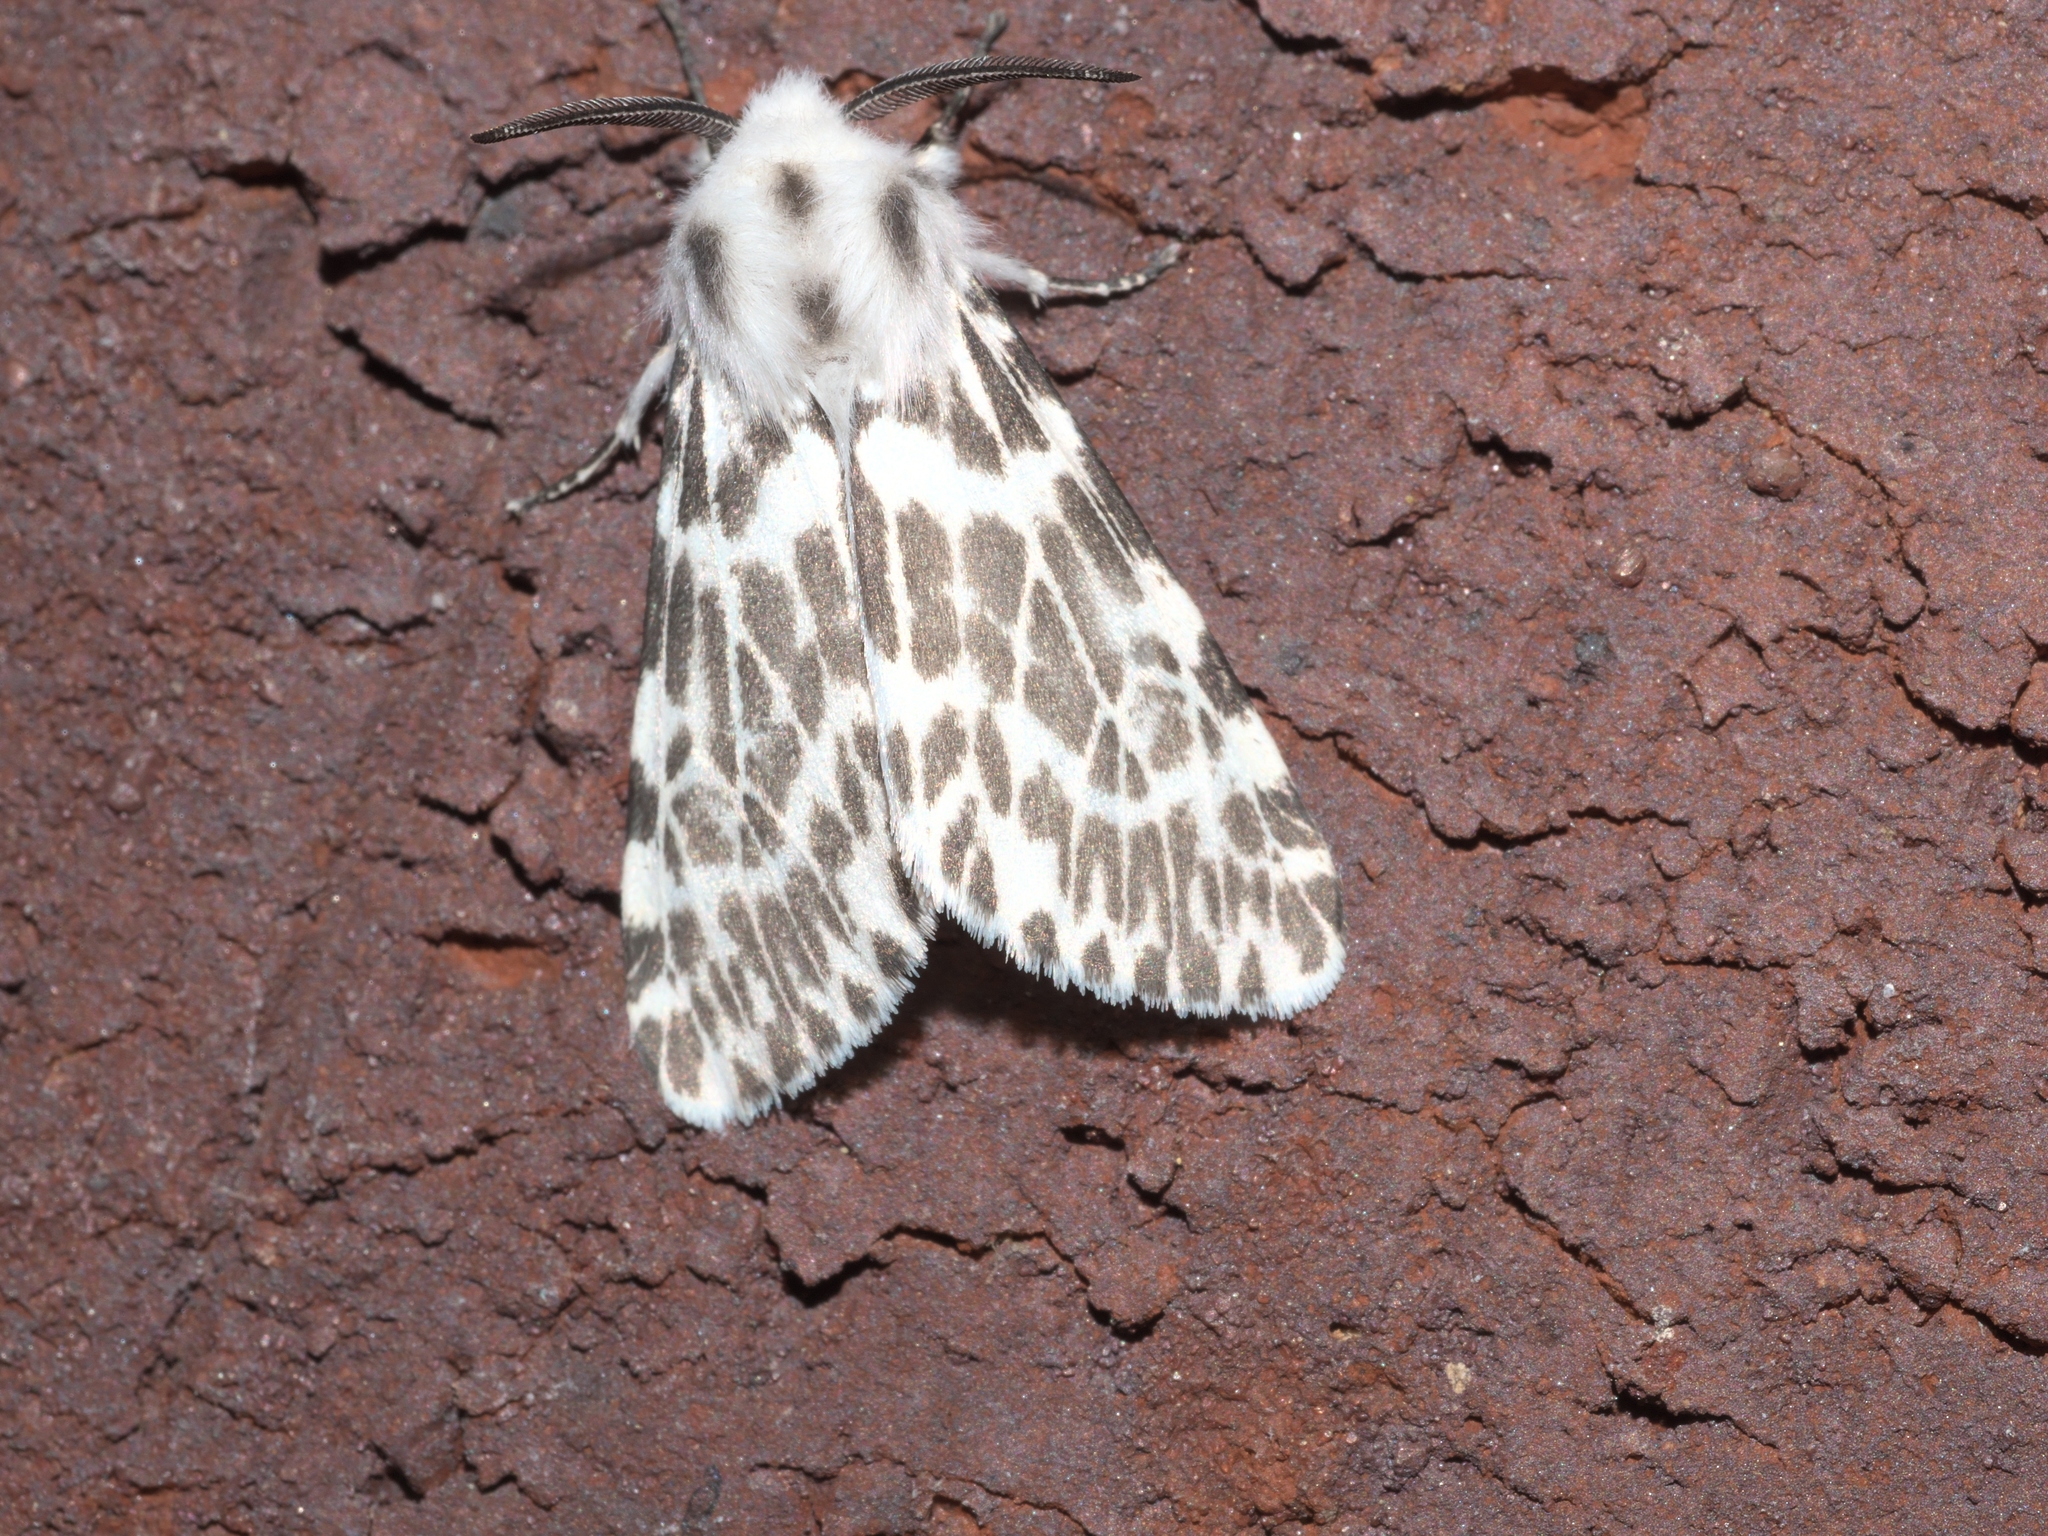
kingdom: Animalia
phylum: Arthropoda
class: Insecta
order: Lepidoptera
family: Erebidae
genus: Hyphantria
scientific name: Hyphantria cunea
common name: American white moth
